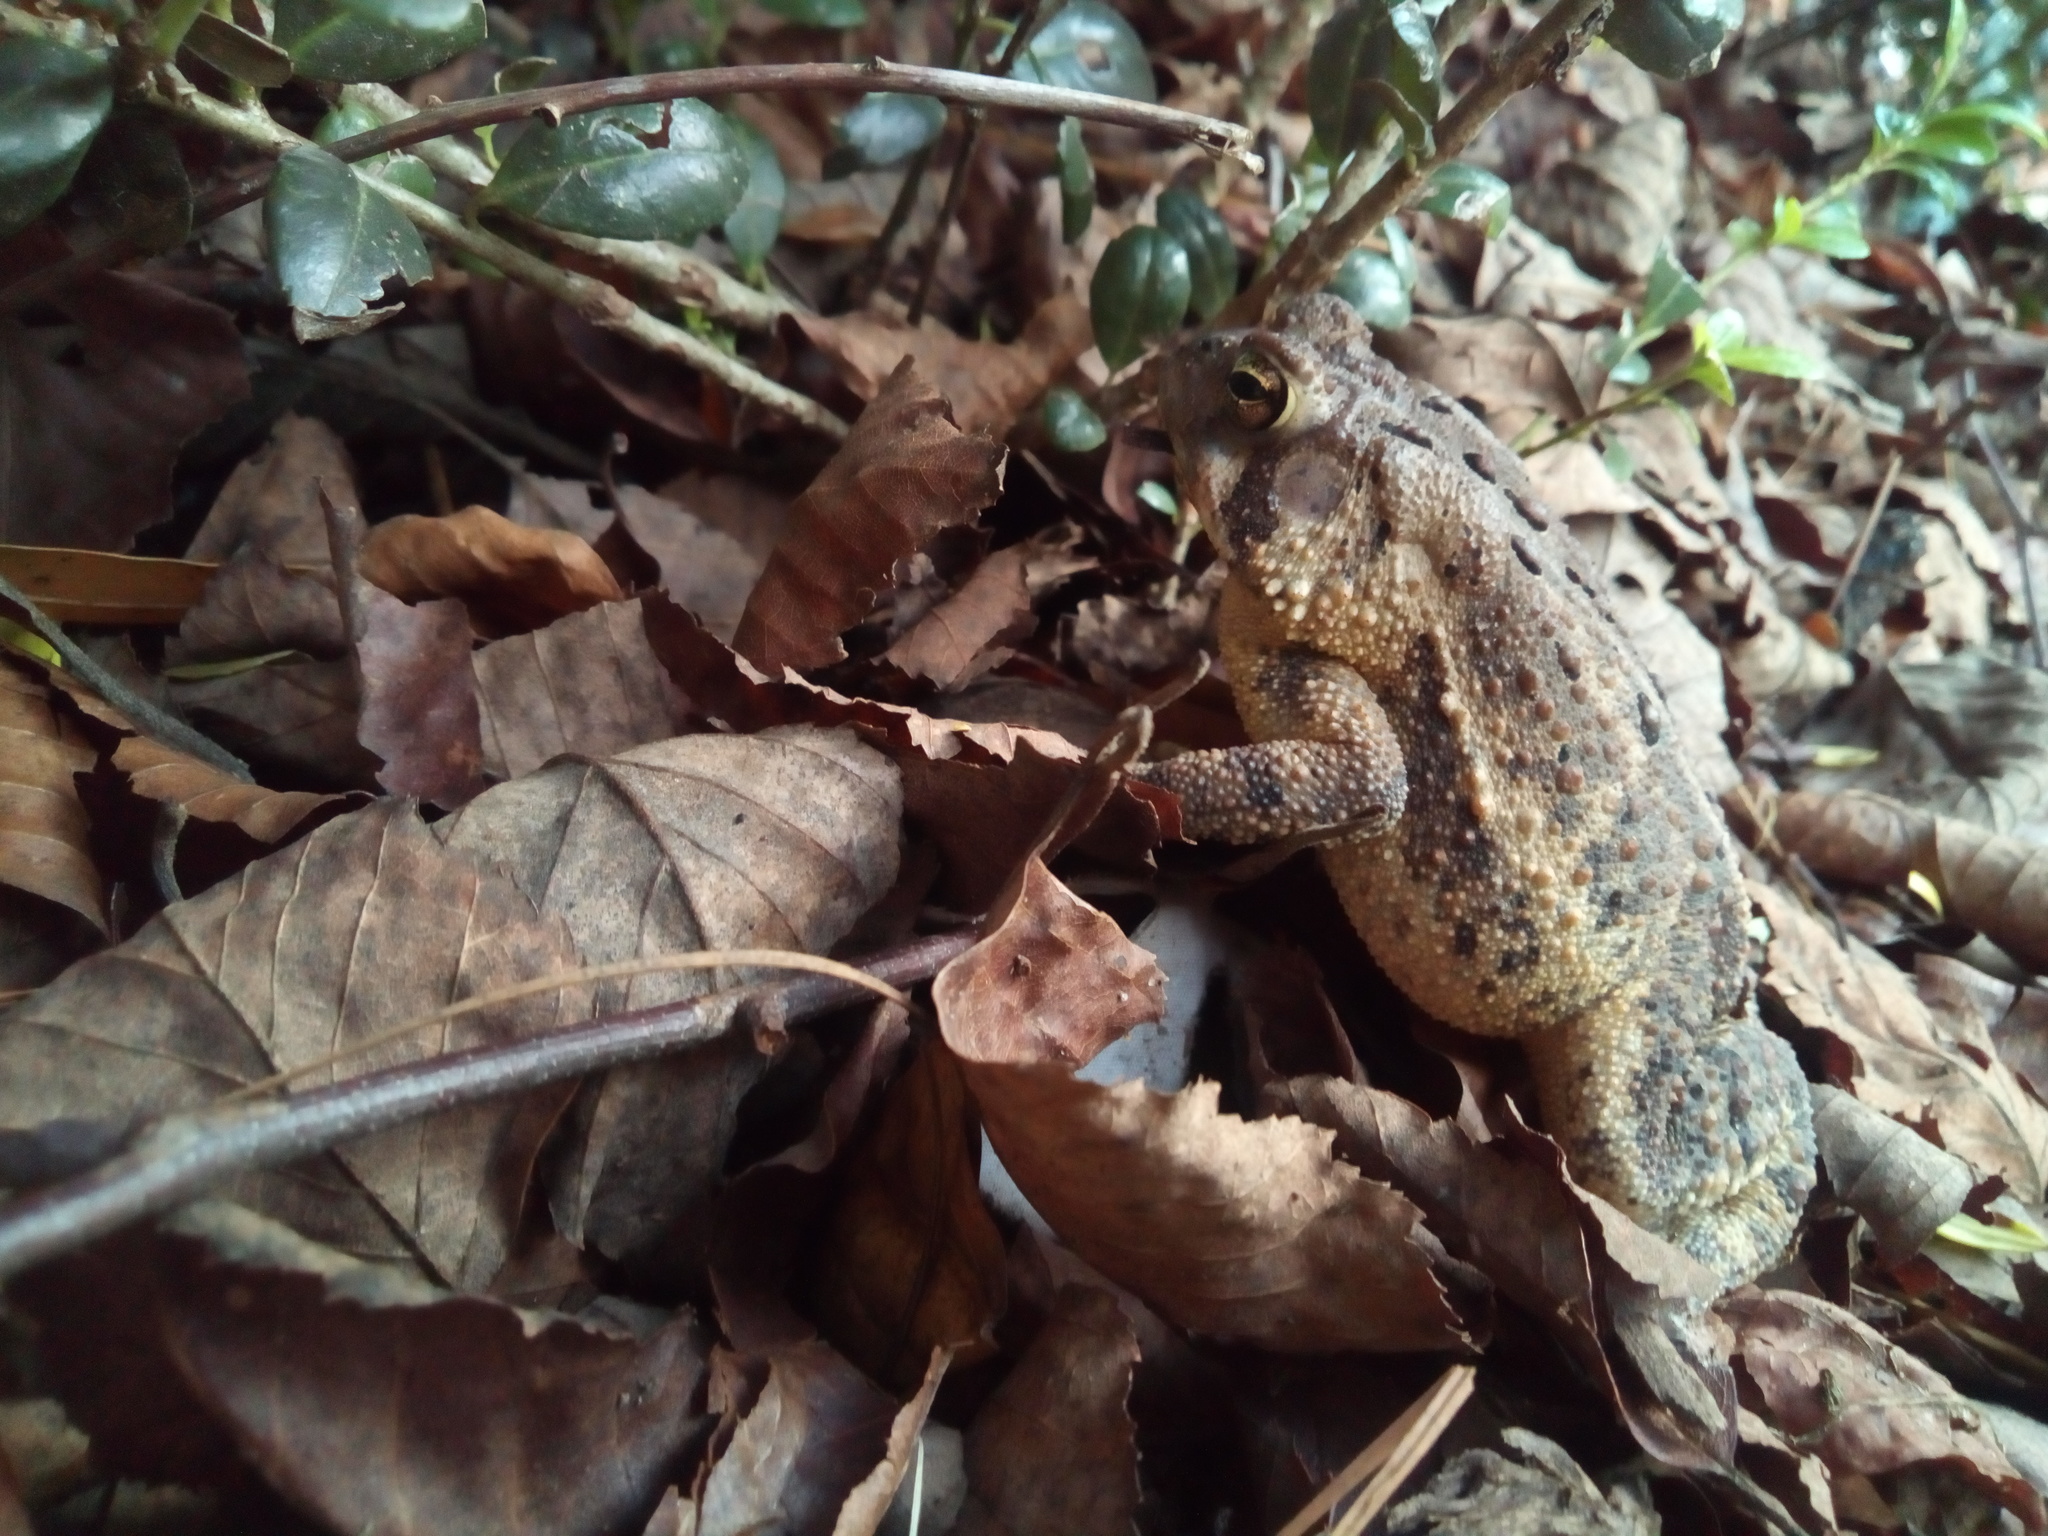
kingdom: Animalia
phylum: Chordata
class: Amphibia
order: Anura
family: Bufonidae
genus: Anaxyrus
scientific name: Anaxyrus americanus
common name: American toad
